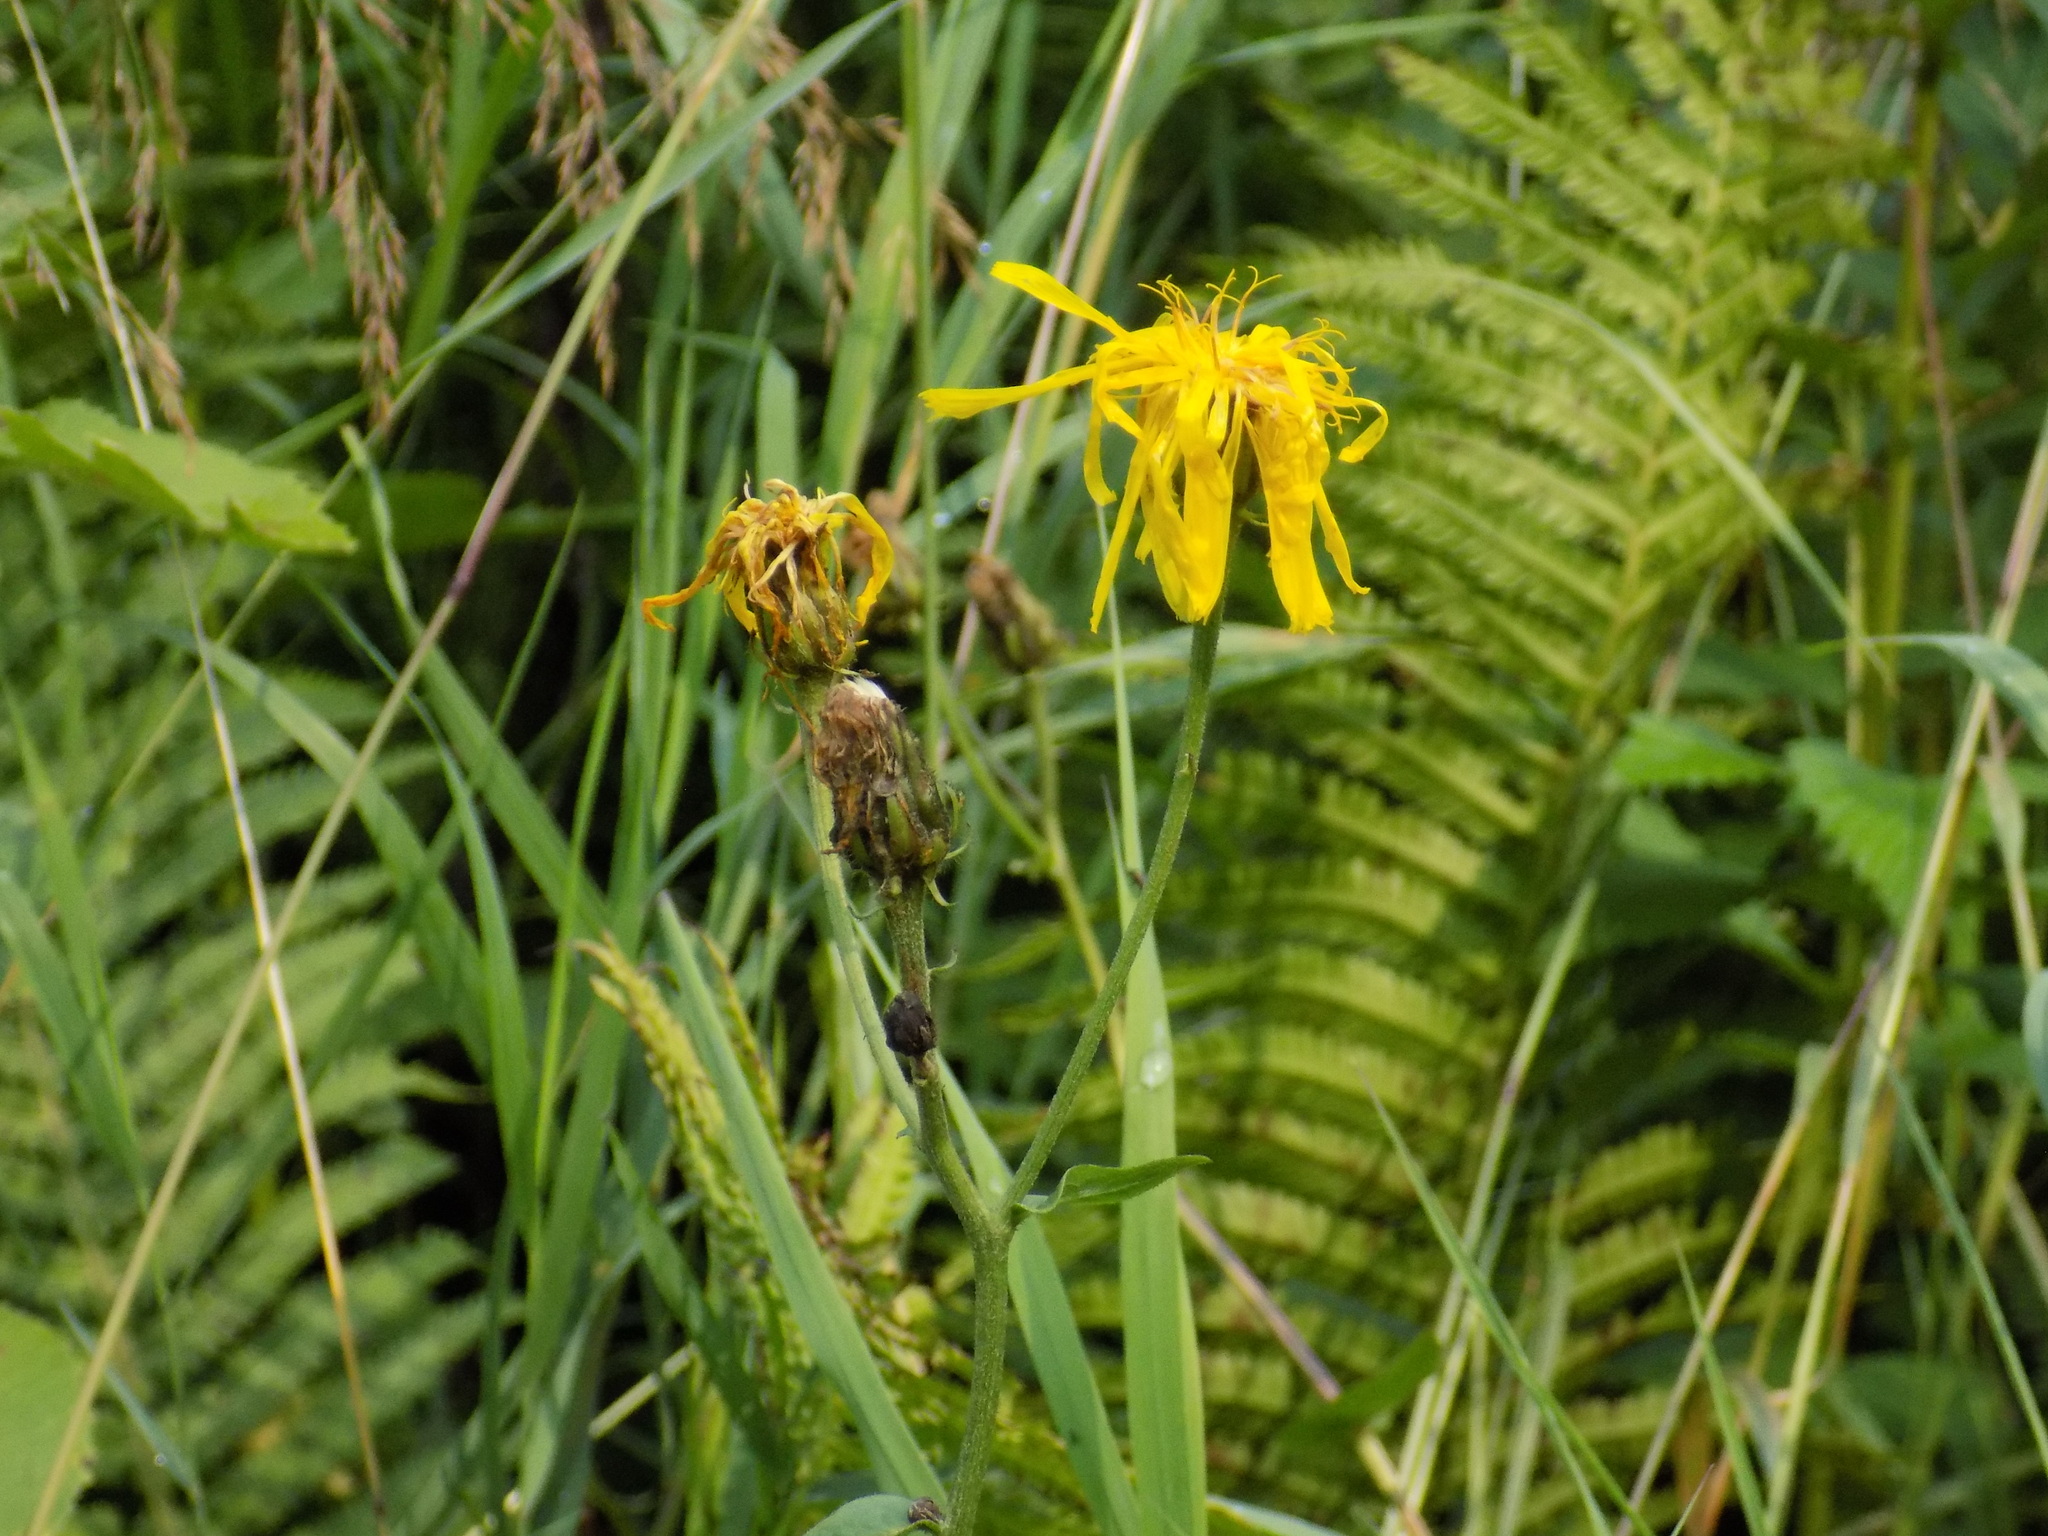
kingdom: Plantae
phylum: Tracheophyta
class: Magnoliopsida
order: Asterales
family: Asteraceae
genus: Crepis
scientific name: Crepis sibirica
